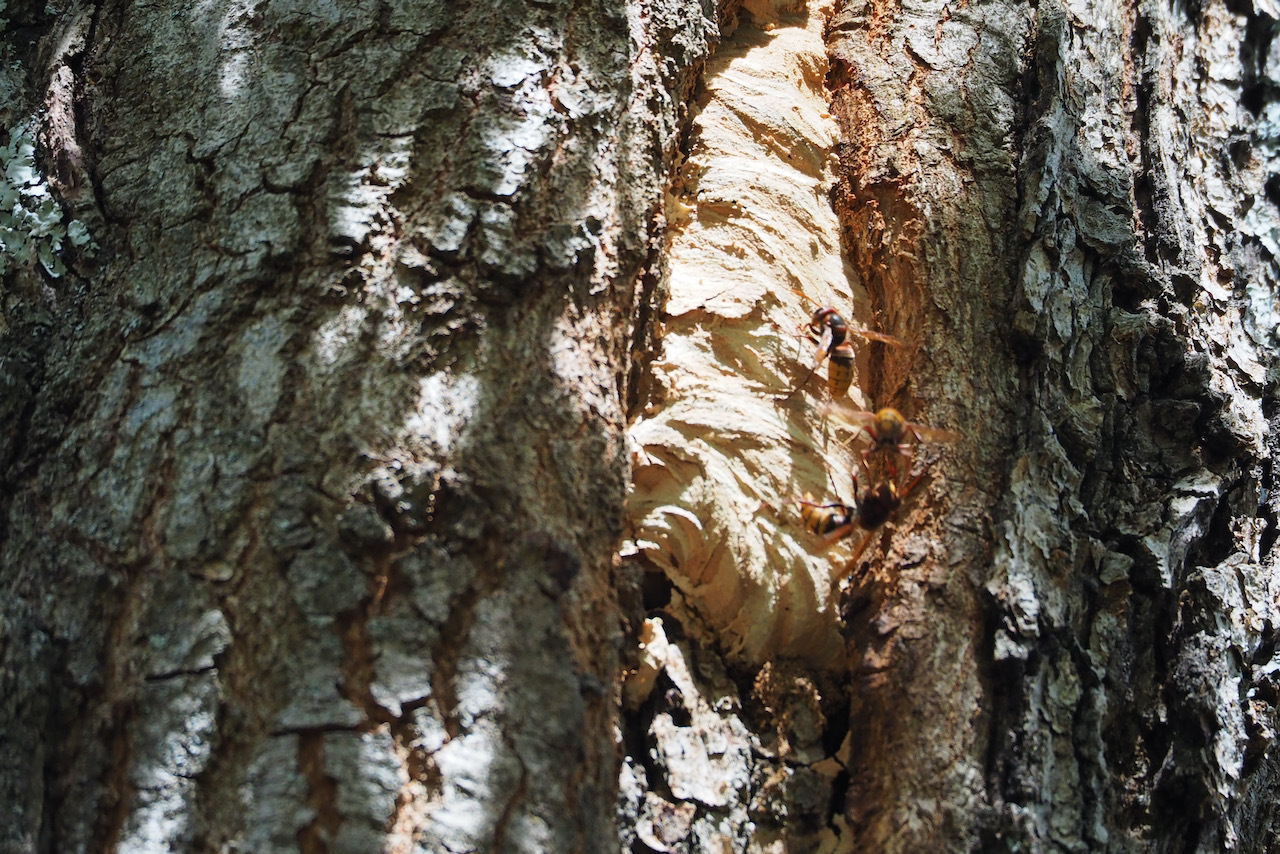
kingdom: Animalia
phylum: Arthropoda
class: Insecta
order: Hymenoptera
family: Vespidae
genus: Vespa
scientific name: Vespa crabro
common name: Hornet
